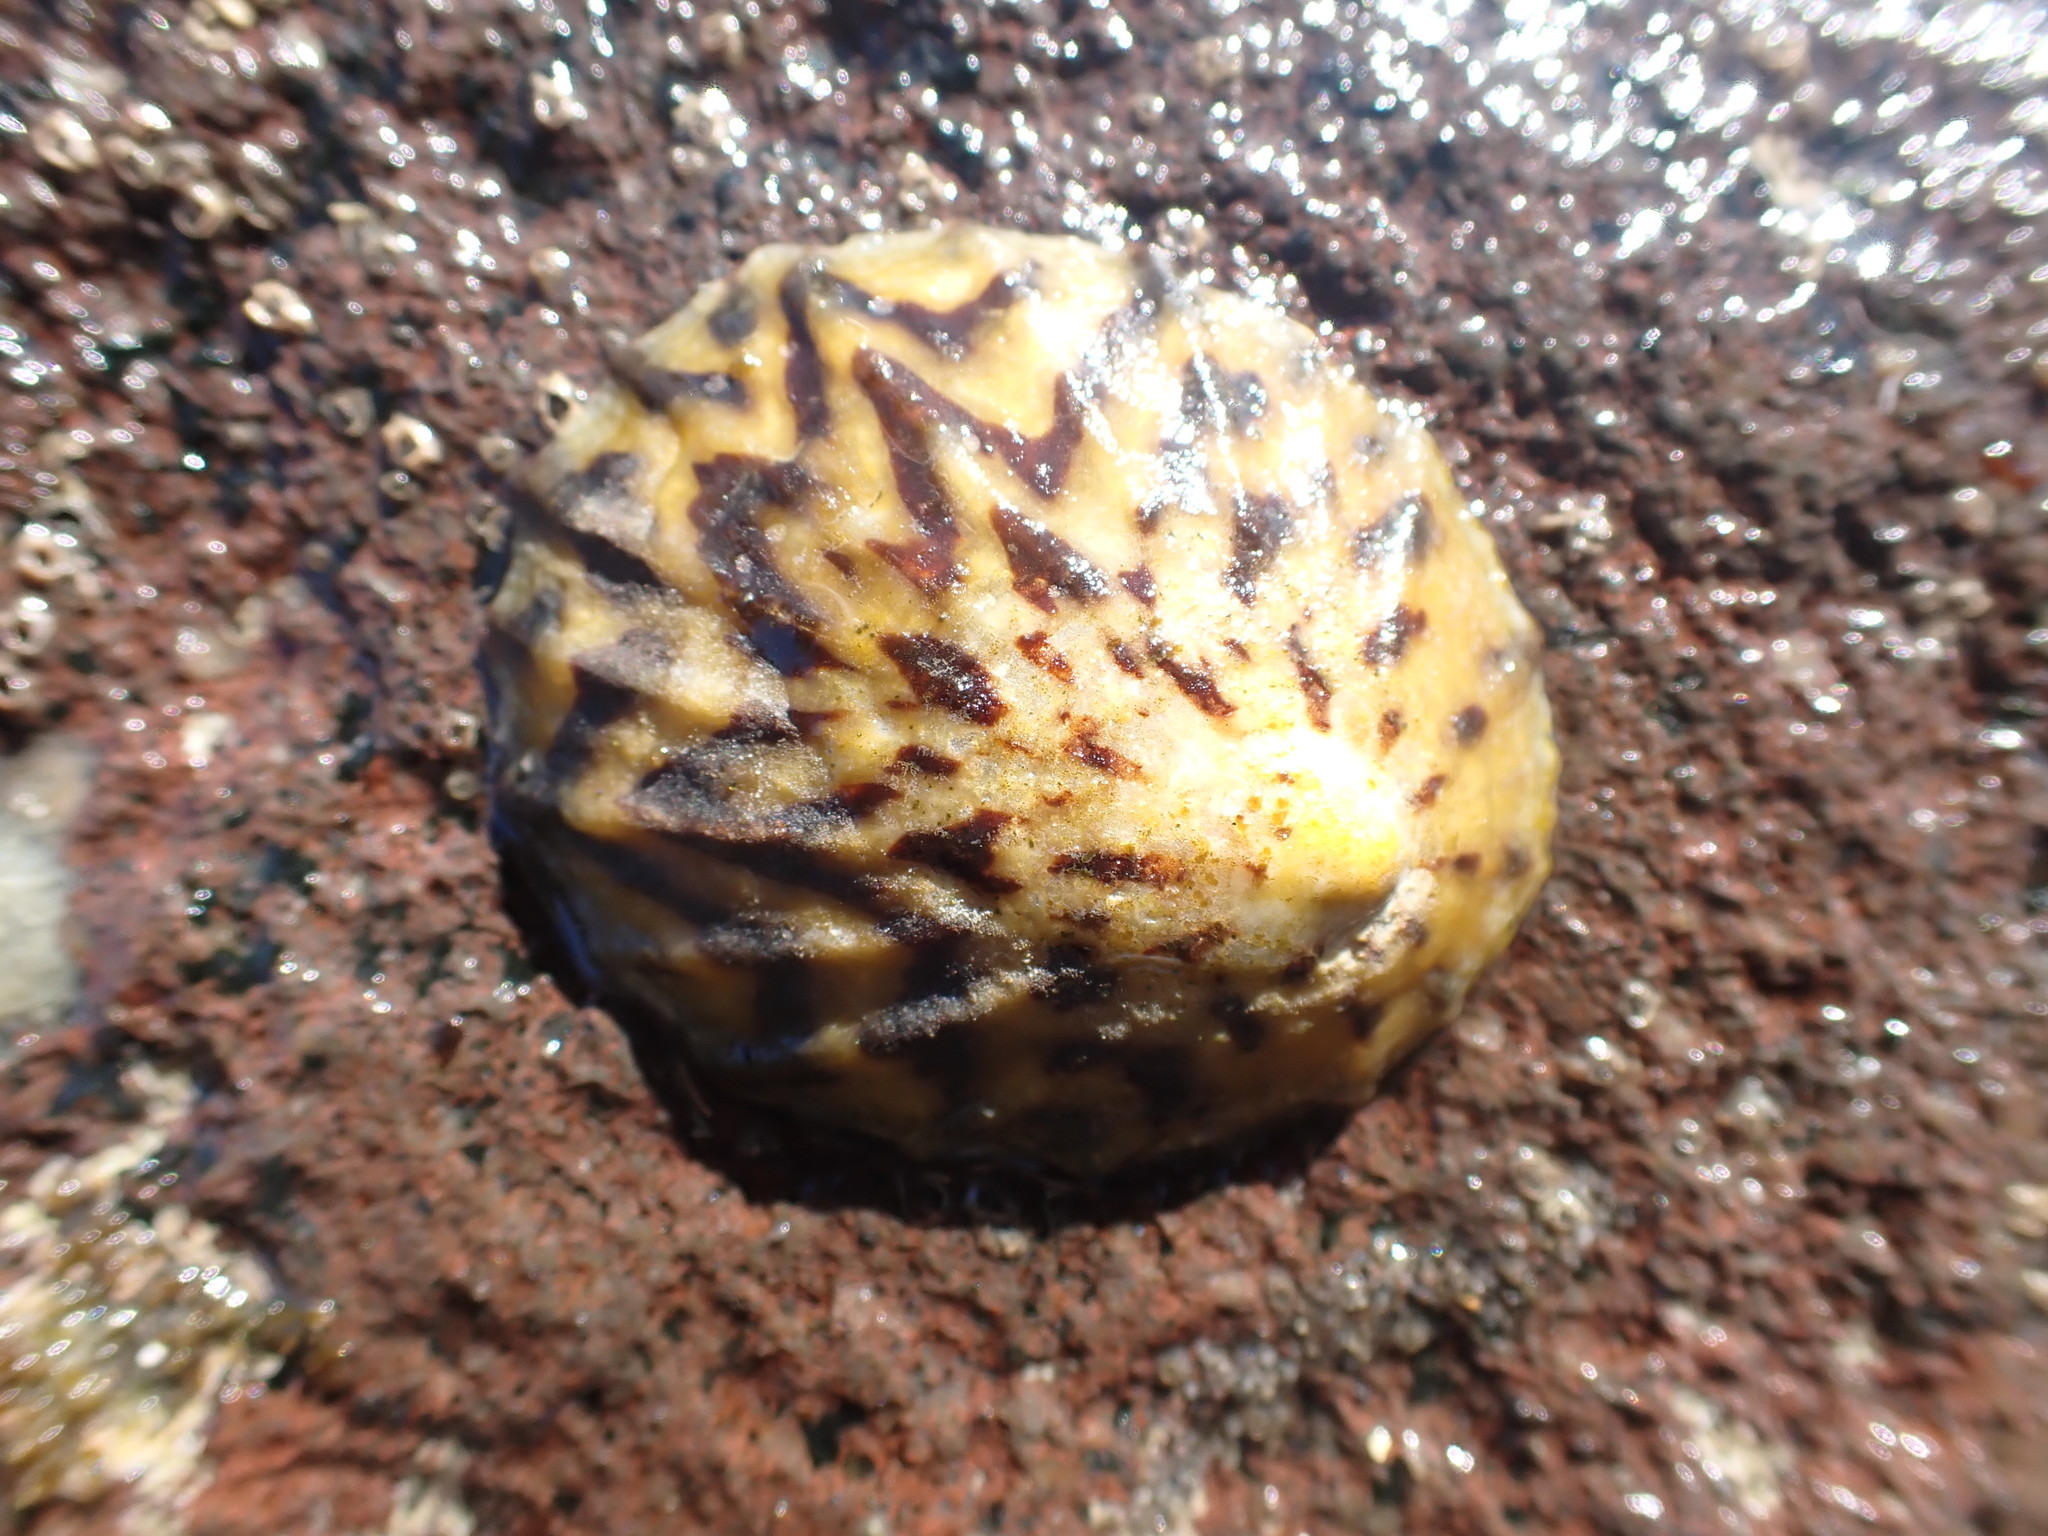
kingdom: Animalia
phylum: Mollusca
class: Gastropoda
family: Nacellidae
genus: Cellana
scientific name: Cellana radians
